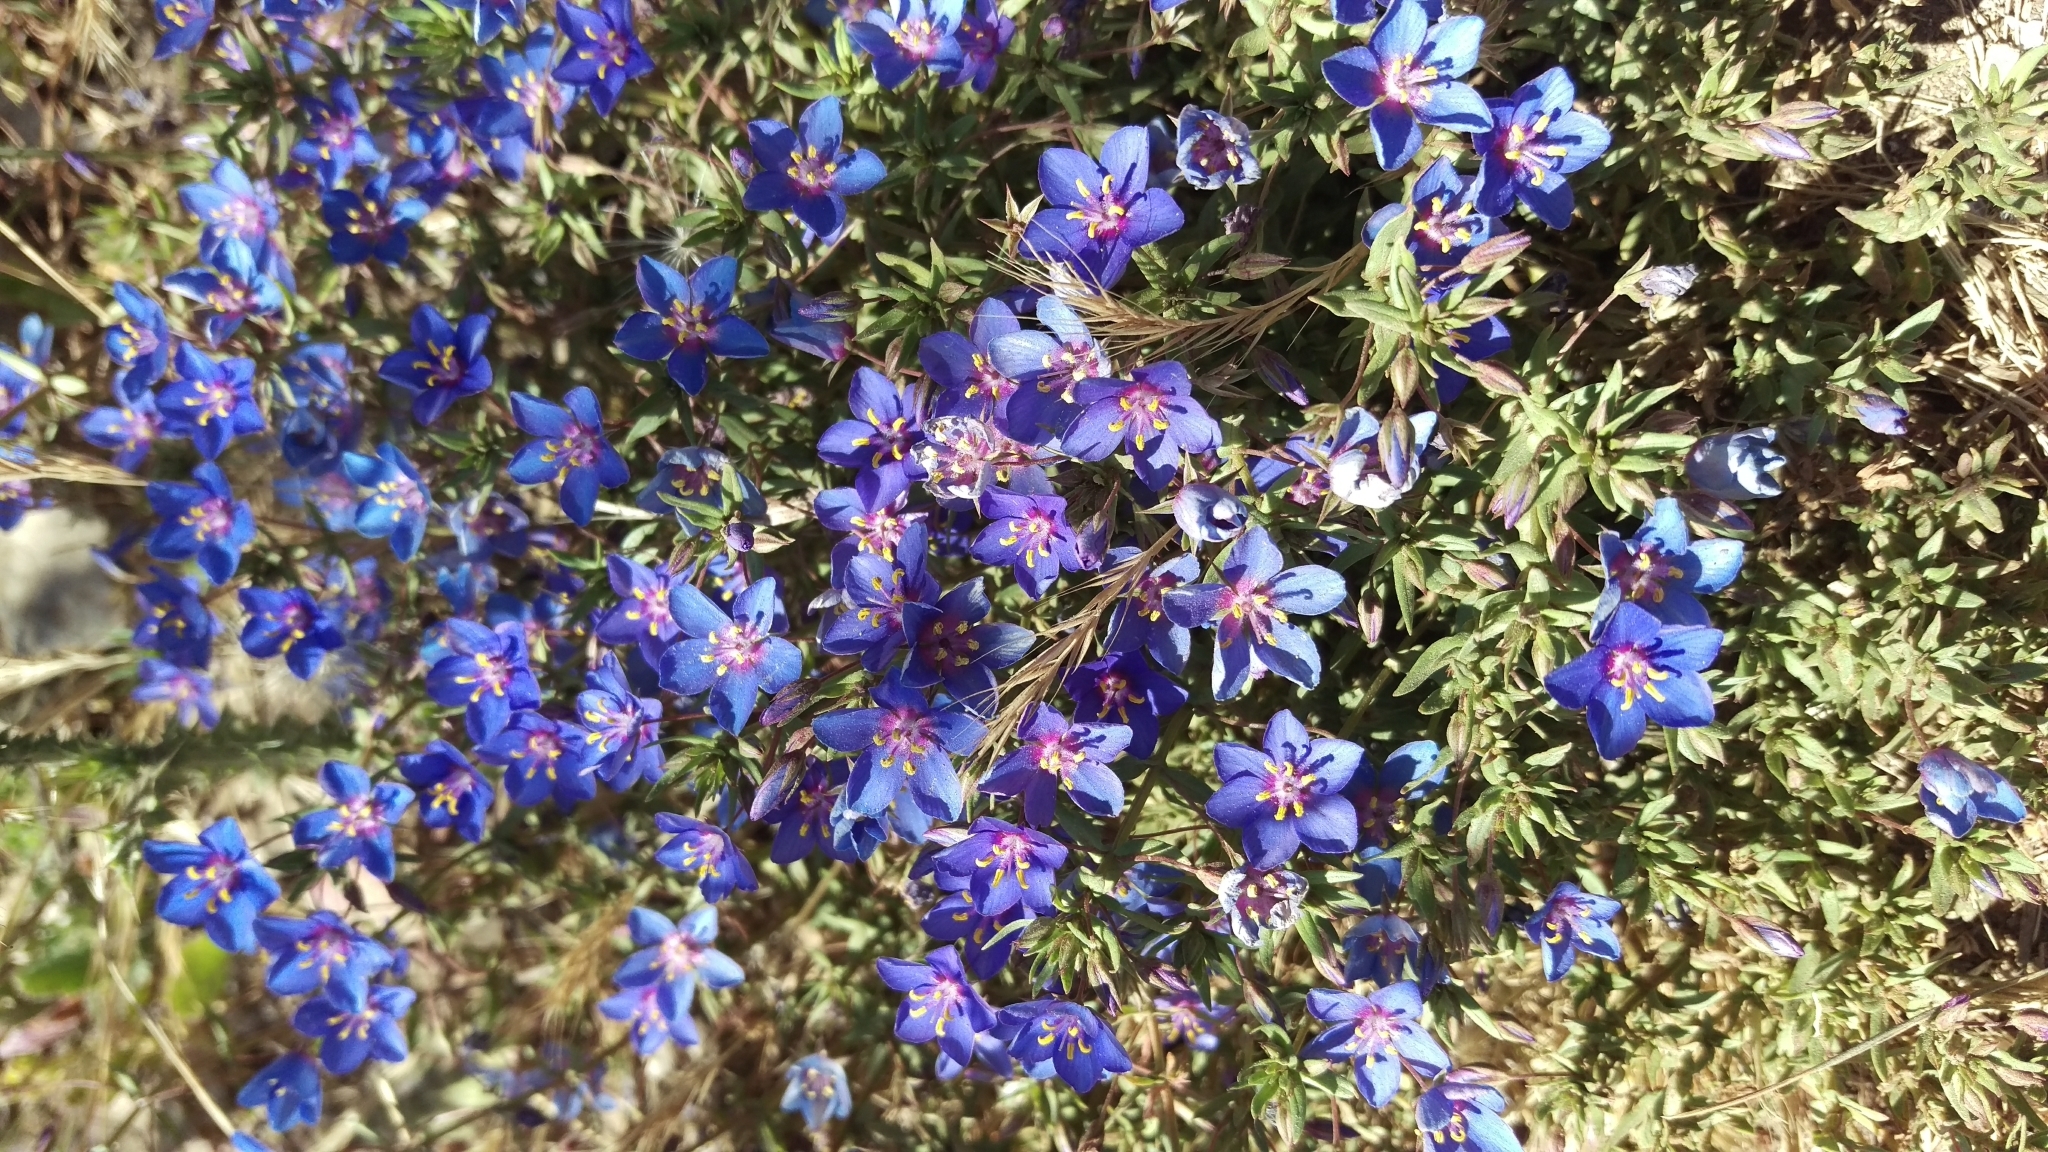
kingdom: Plantae
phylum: Tracheophyta
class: Magnoliopsida
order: Ericales
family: Primulaceae
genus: Lysimachia
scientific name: Lysimachia monelli
